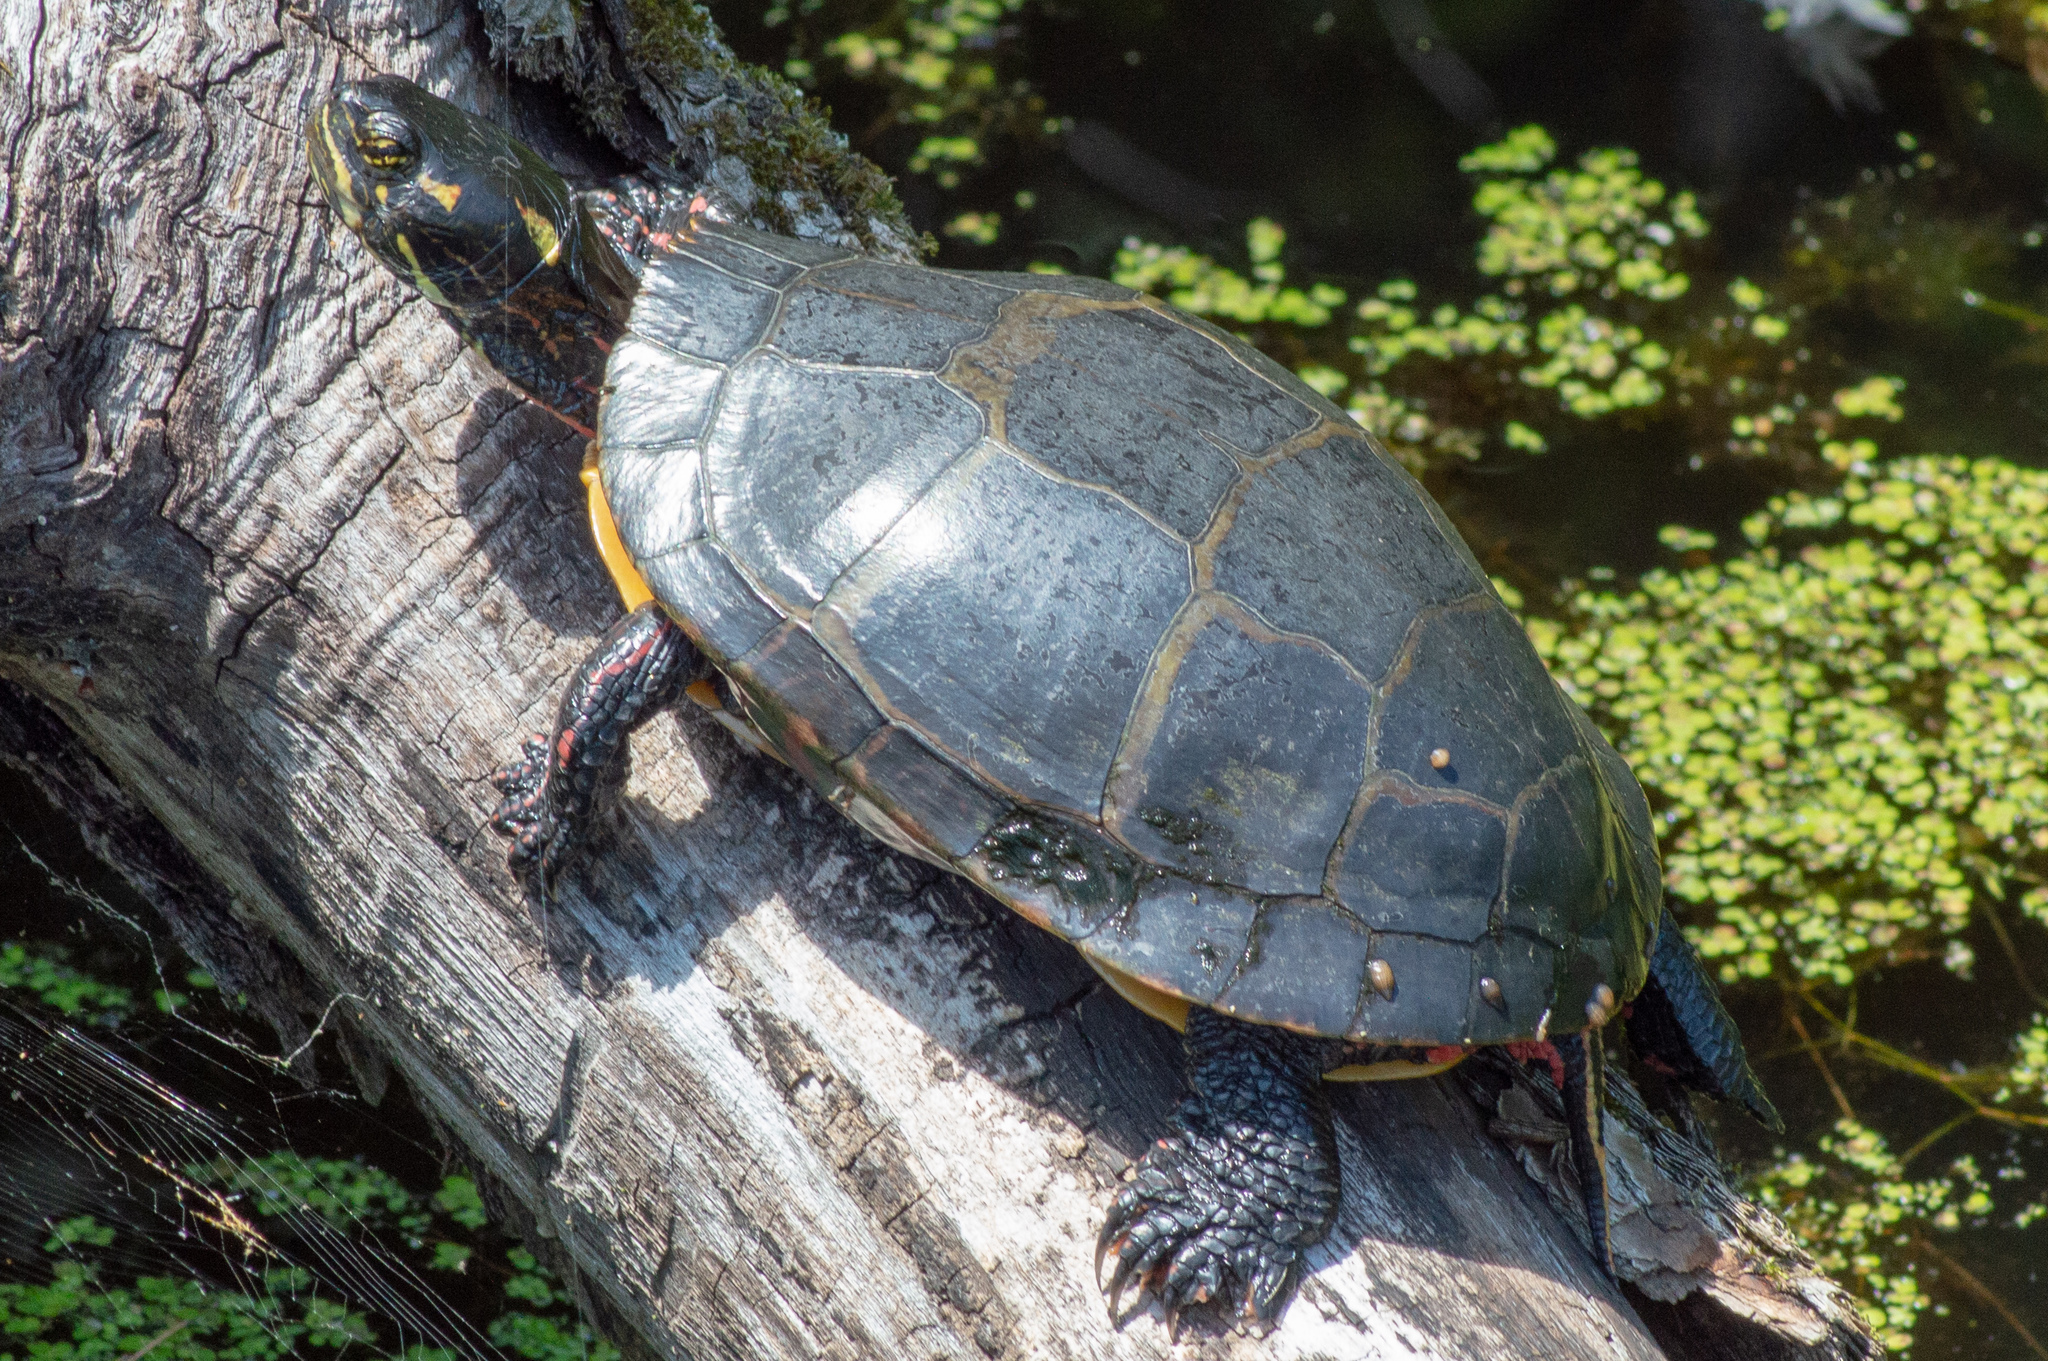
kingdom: Animalia
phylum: Chordata
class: Testudines
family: Emydidae
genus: Chrysemys
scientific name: Chrysemys picta
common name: Painted turtle
